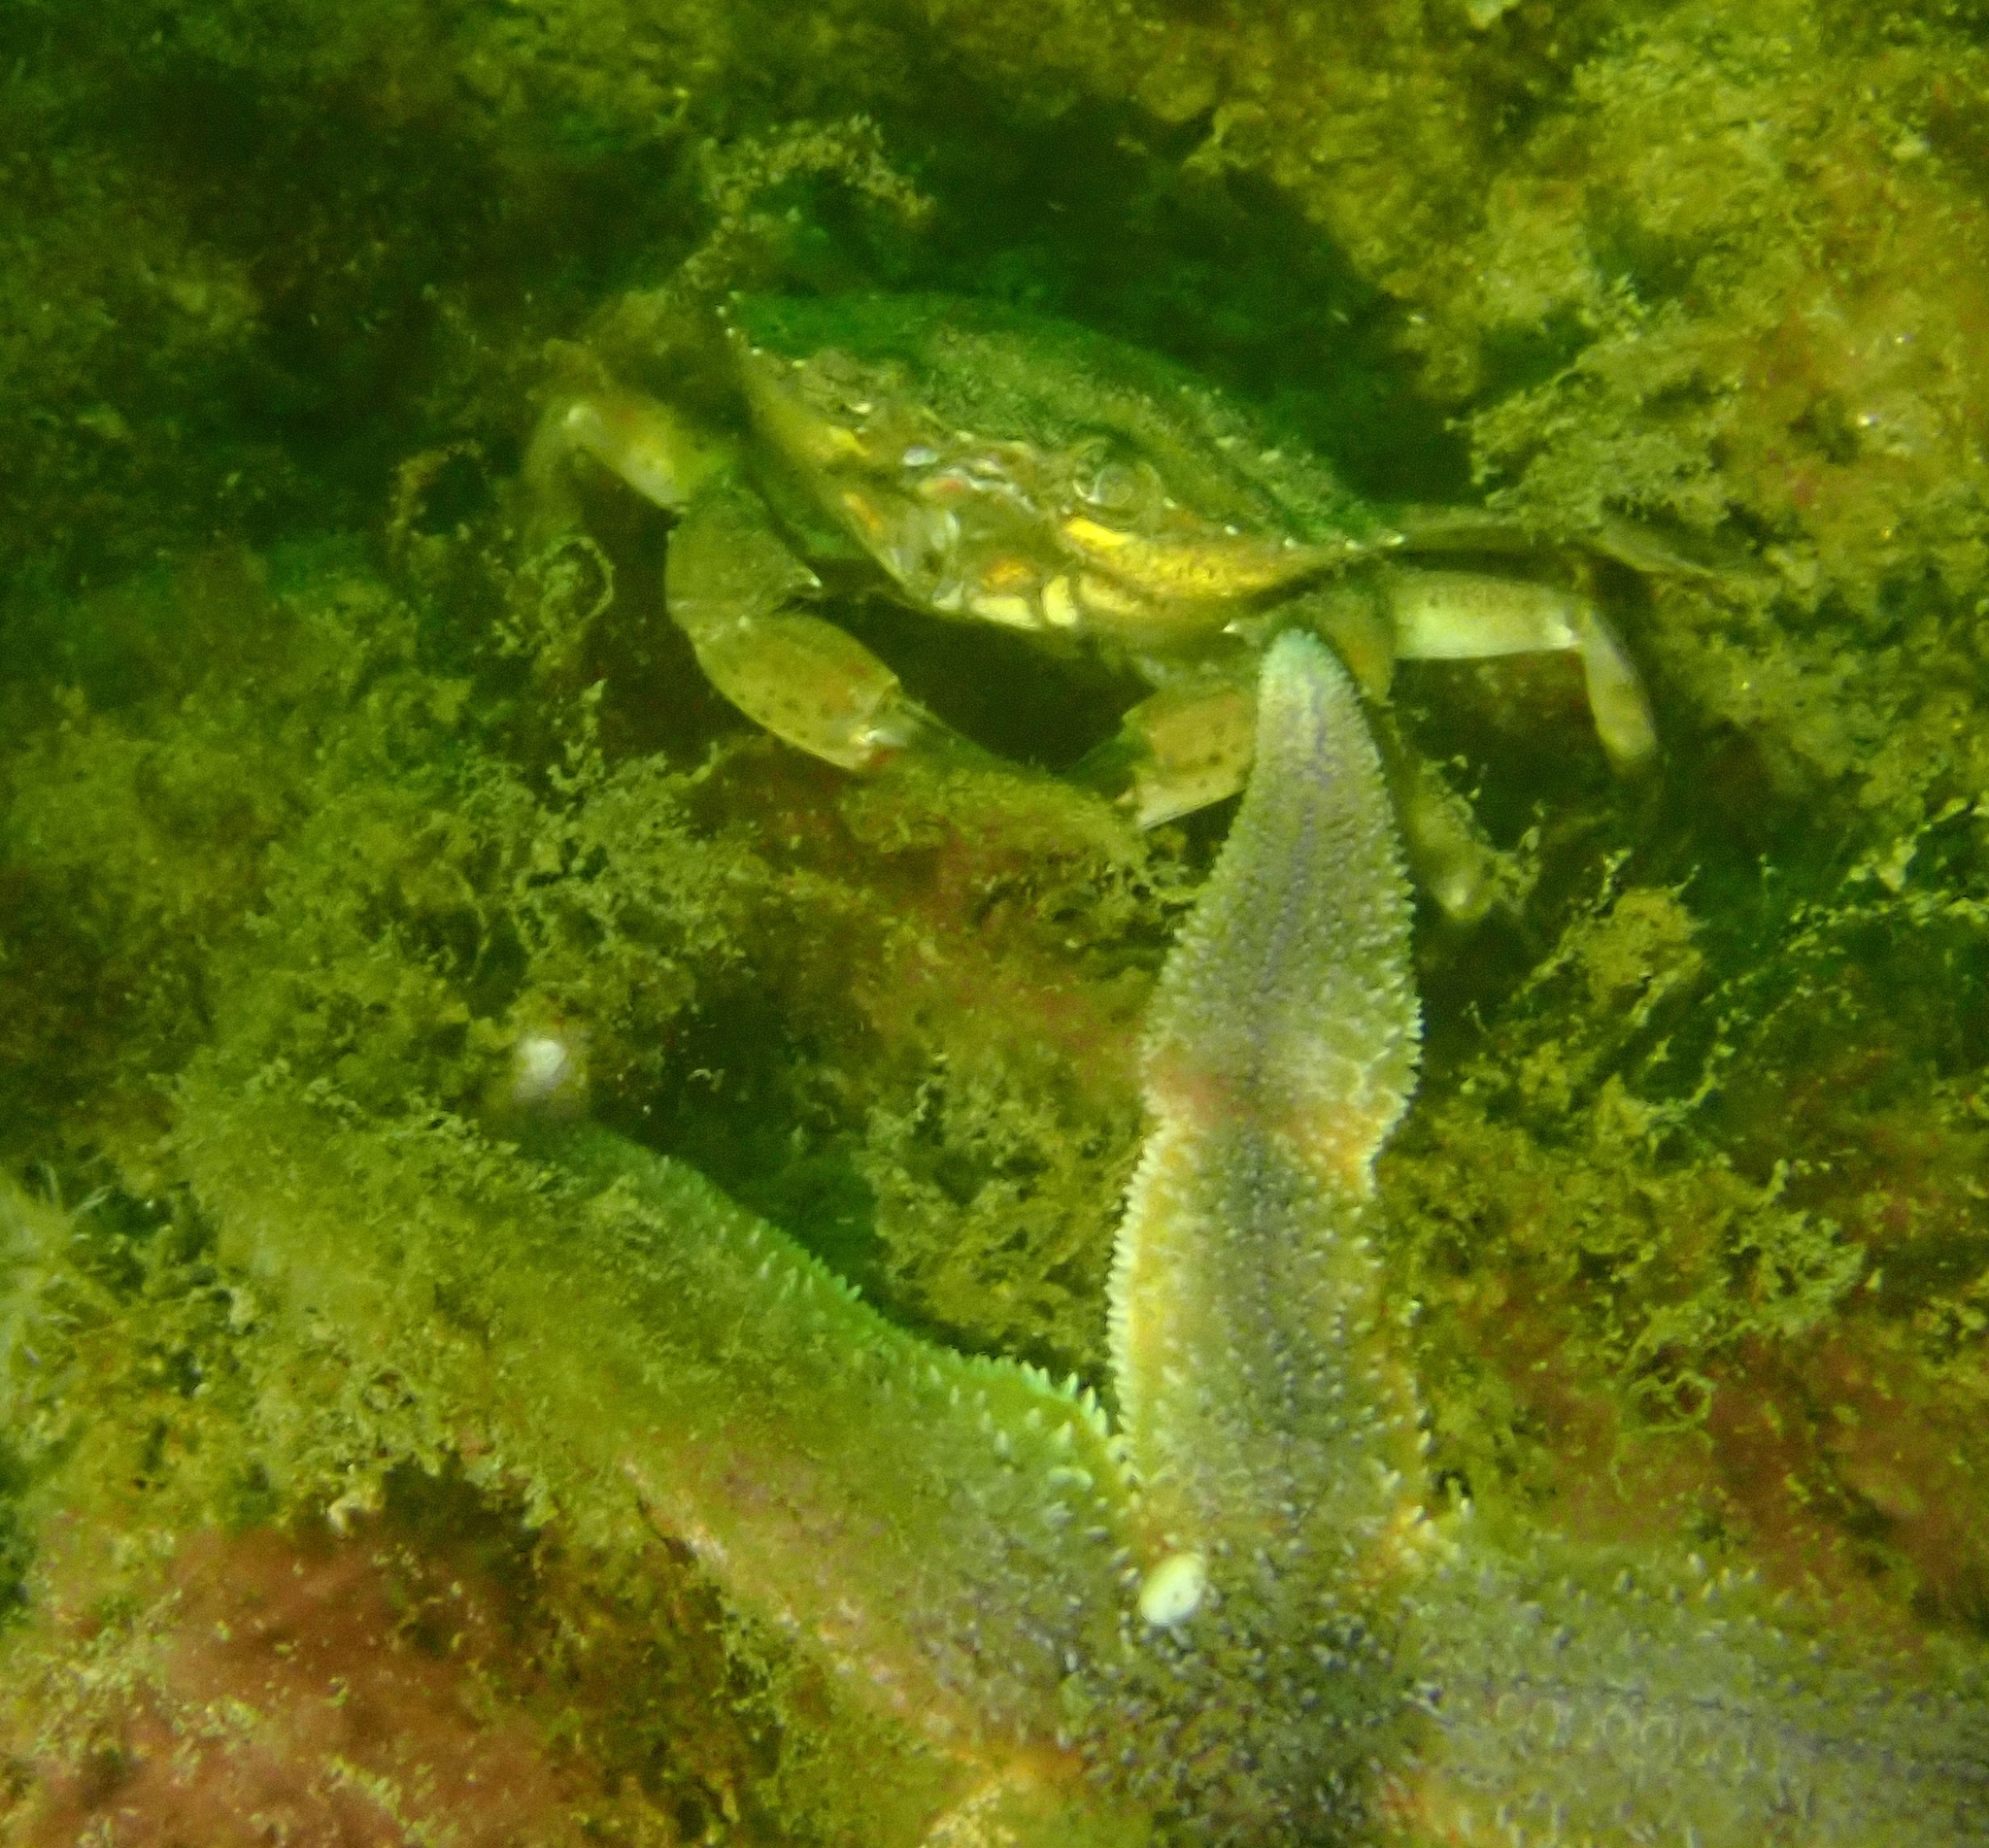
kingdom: Animalia
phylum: Arthropoda
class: Malacostraca
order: Decapoda
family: Carcinidae
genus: Carcinus
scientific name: Carcinus maenas
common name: European green crab
